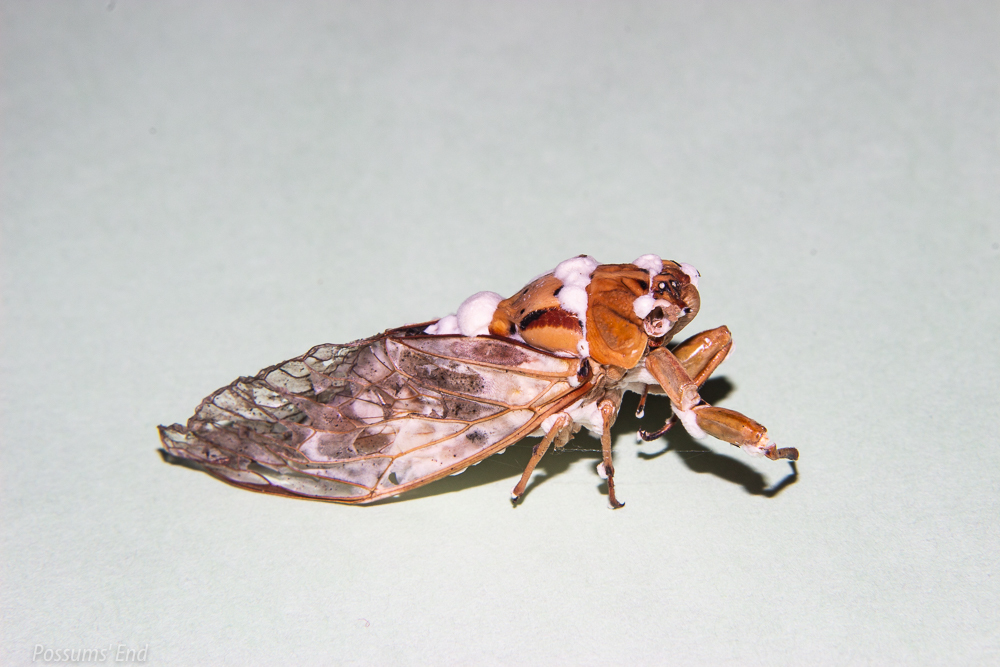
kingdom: Fungi
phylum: Ascomycota
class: Sordariomycetes
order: Hypocreales
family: Cordycipitaceae
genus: Beauveria
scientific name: Beauveria bassiana
